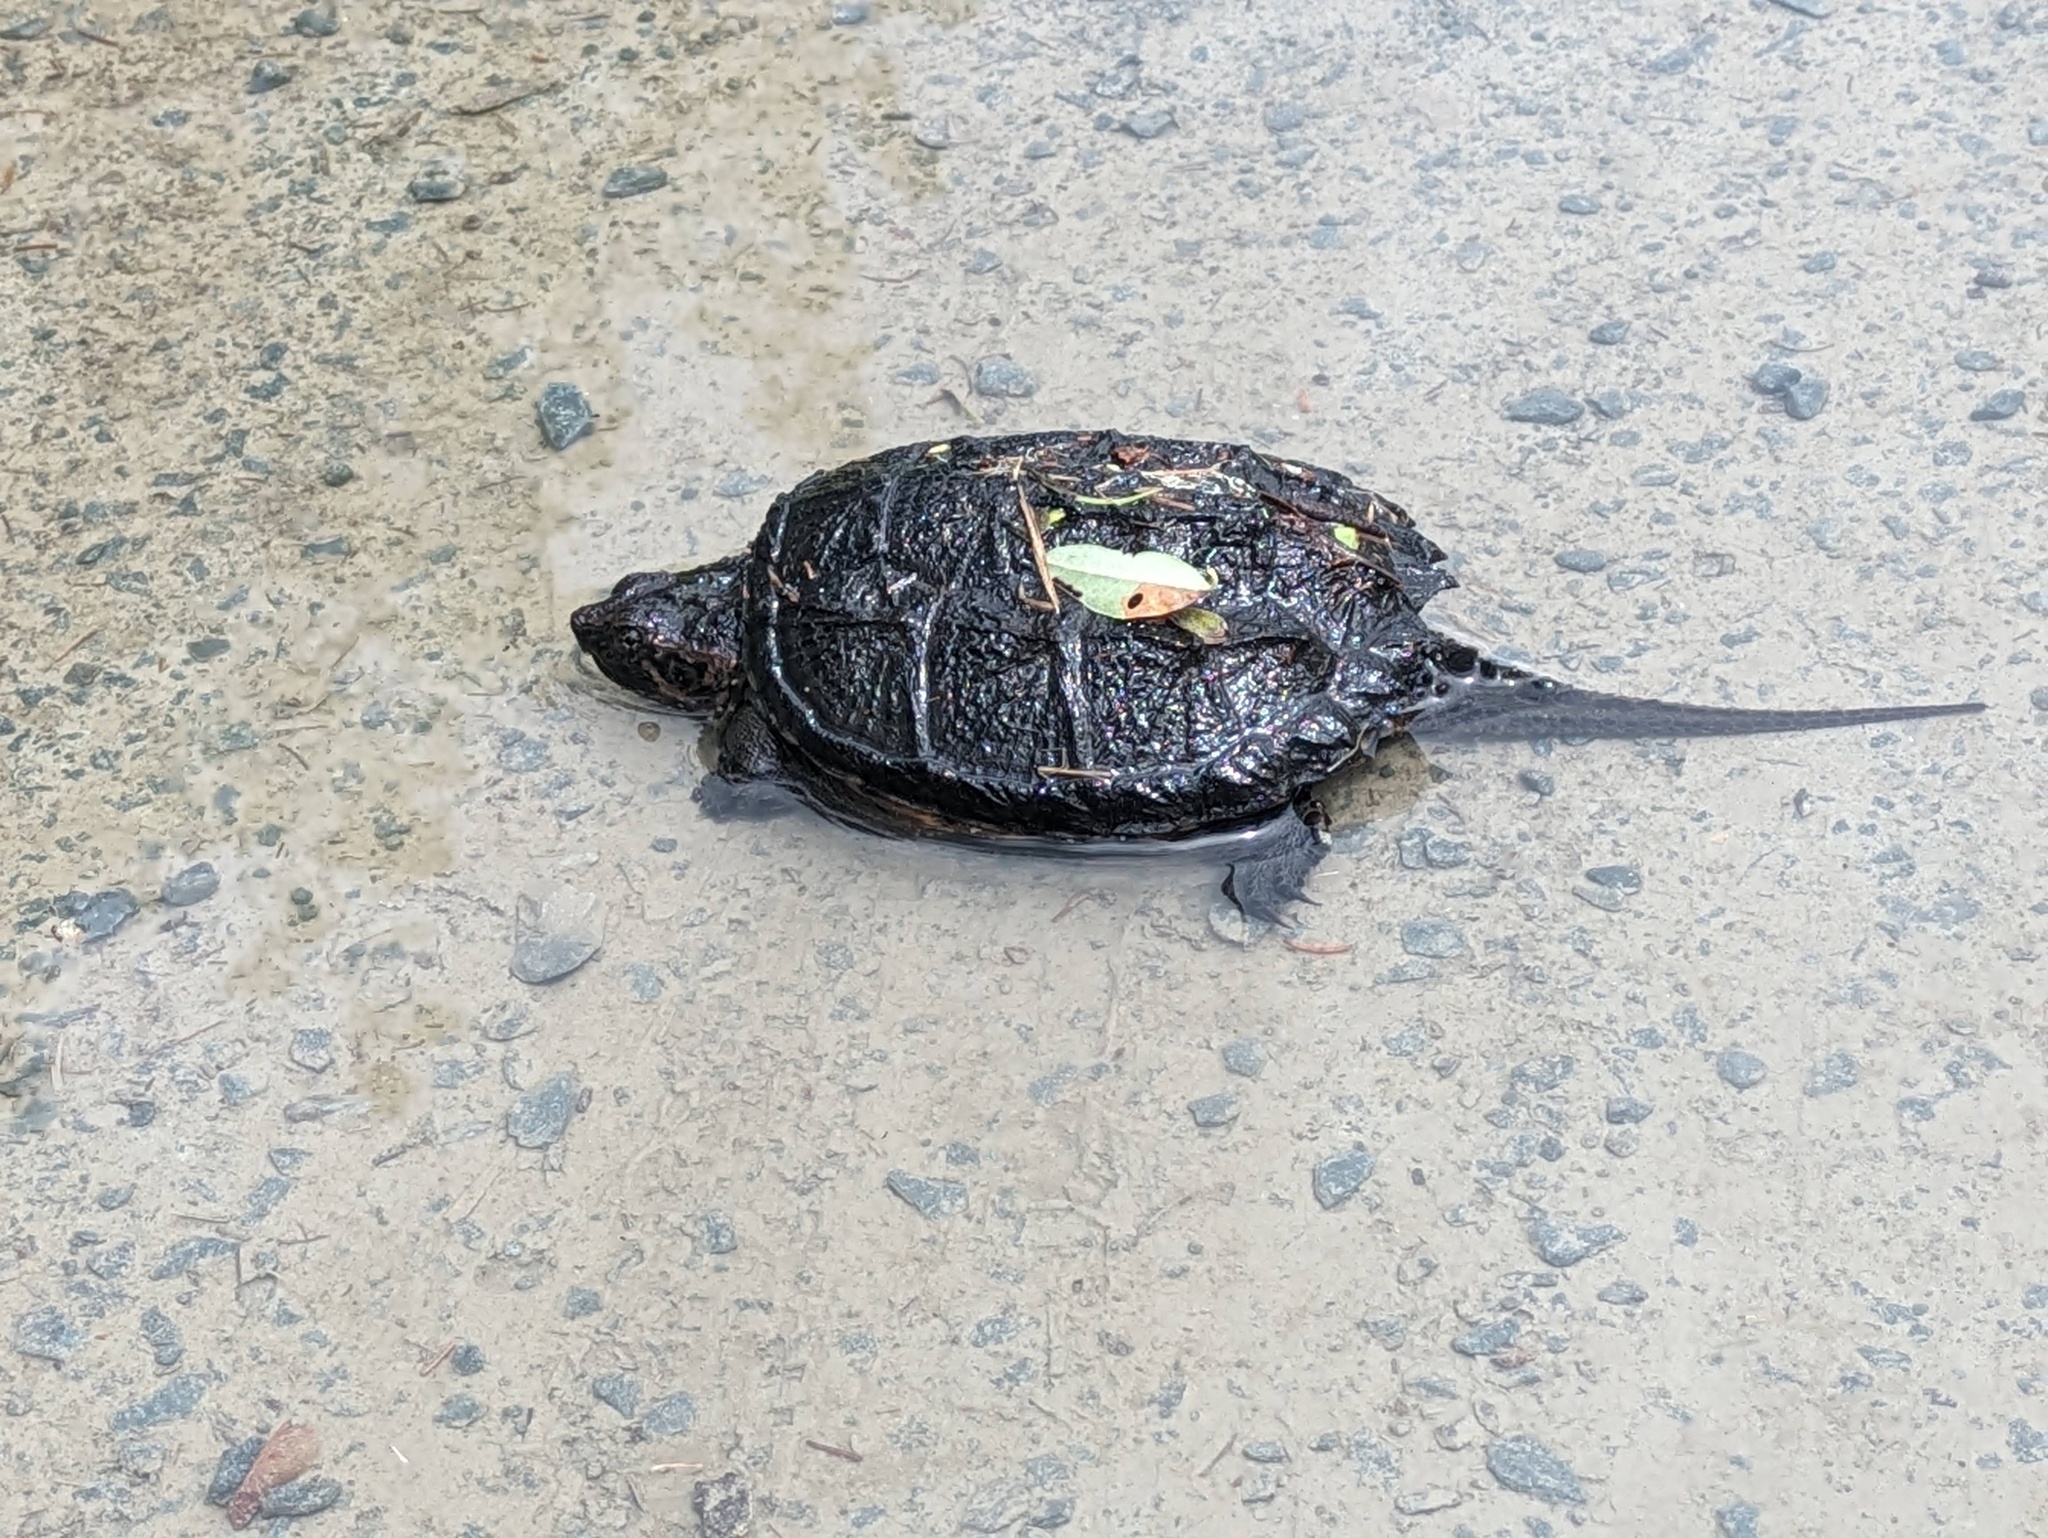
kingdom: Animalia
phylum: Chordata
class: Testudines
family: Chelydridae
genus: Chelydra
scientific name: Chelydra serpentina
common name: Common snapping turtle
